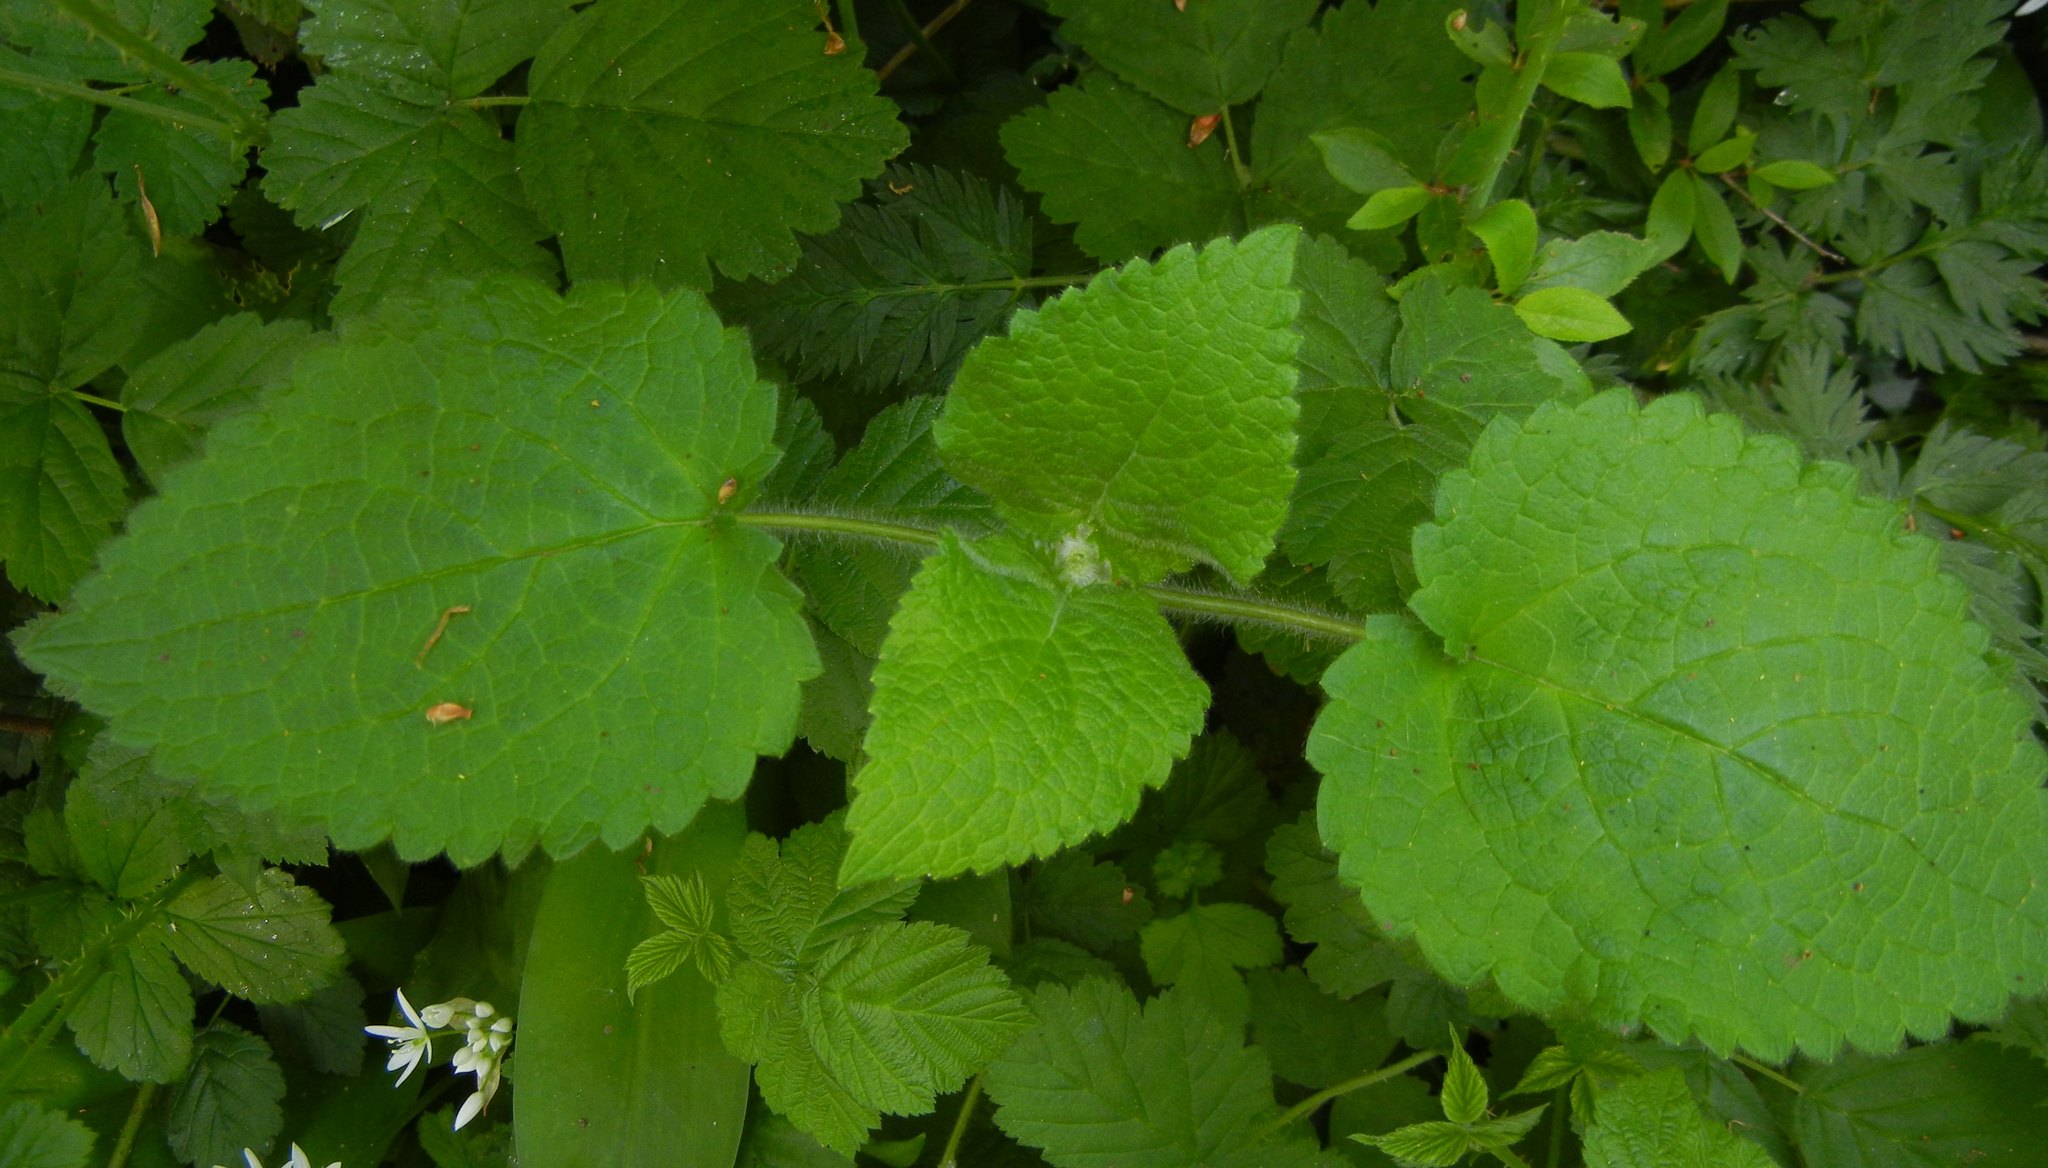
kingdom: Plantae
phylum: Tracheophyta
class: Magnoliopsida
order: Lamiales
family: Lamiaceae
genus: Stachys
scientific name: Stachys sylvatica
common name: Hedge woundwort
